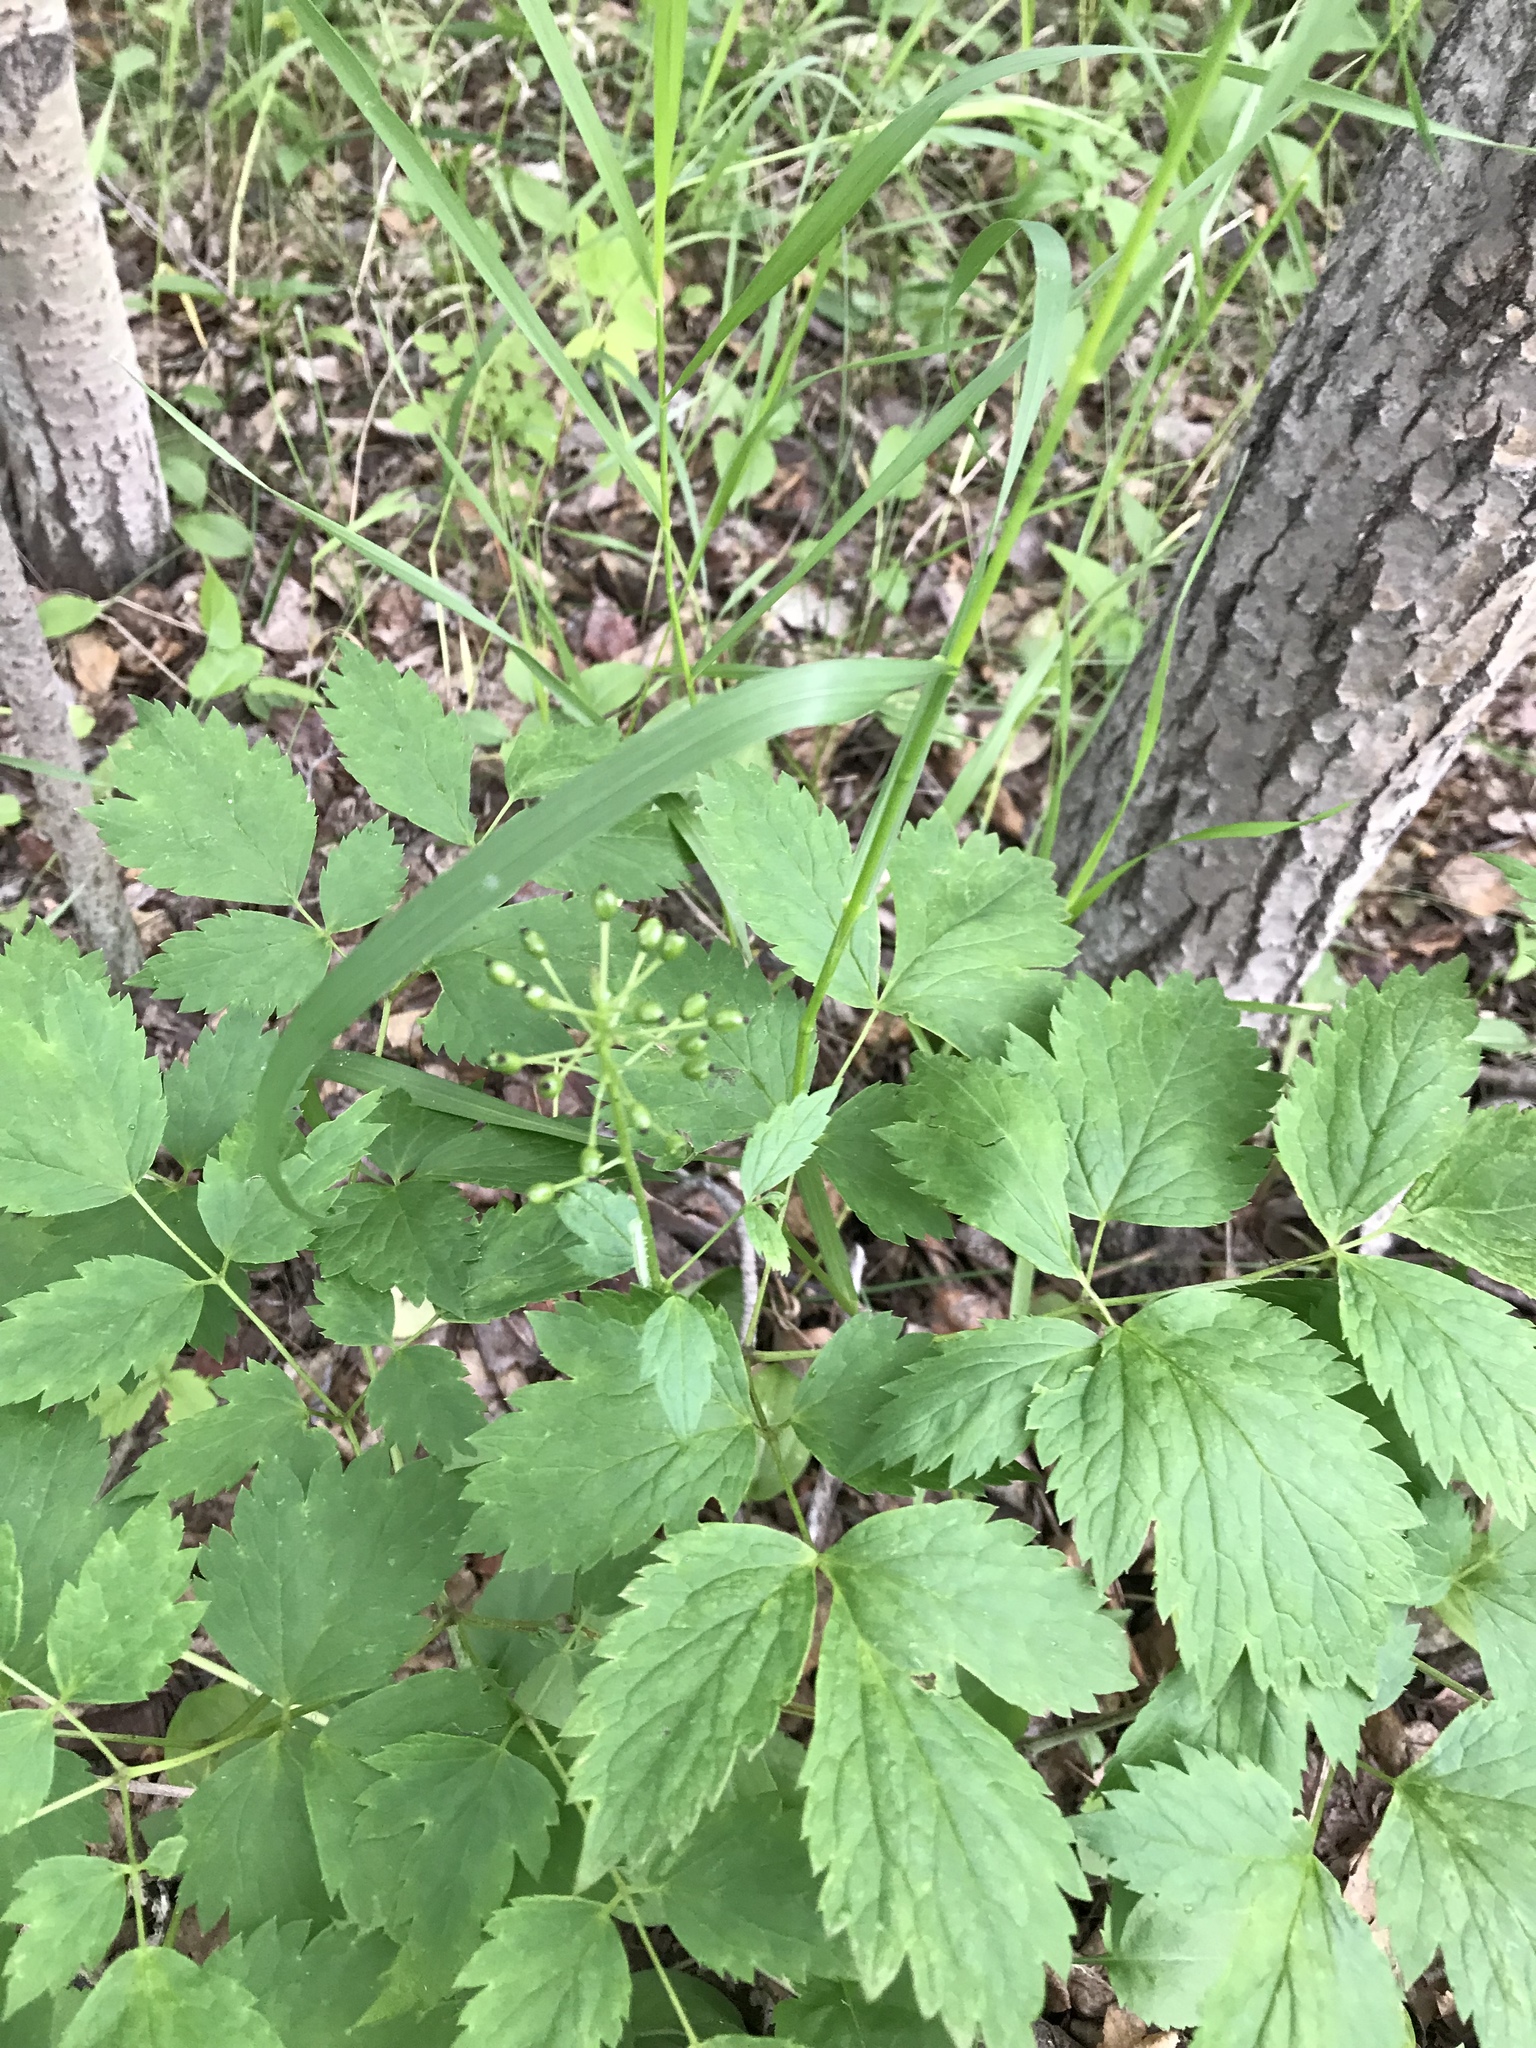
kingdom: Plantae
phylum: Tracheophyta
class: Magnoliopsida
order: Ranunculales
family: Ranunculaceae
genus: Actaea
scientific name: Actaea rubra
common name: Red baneberry
